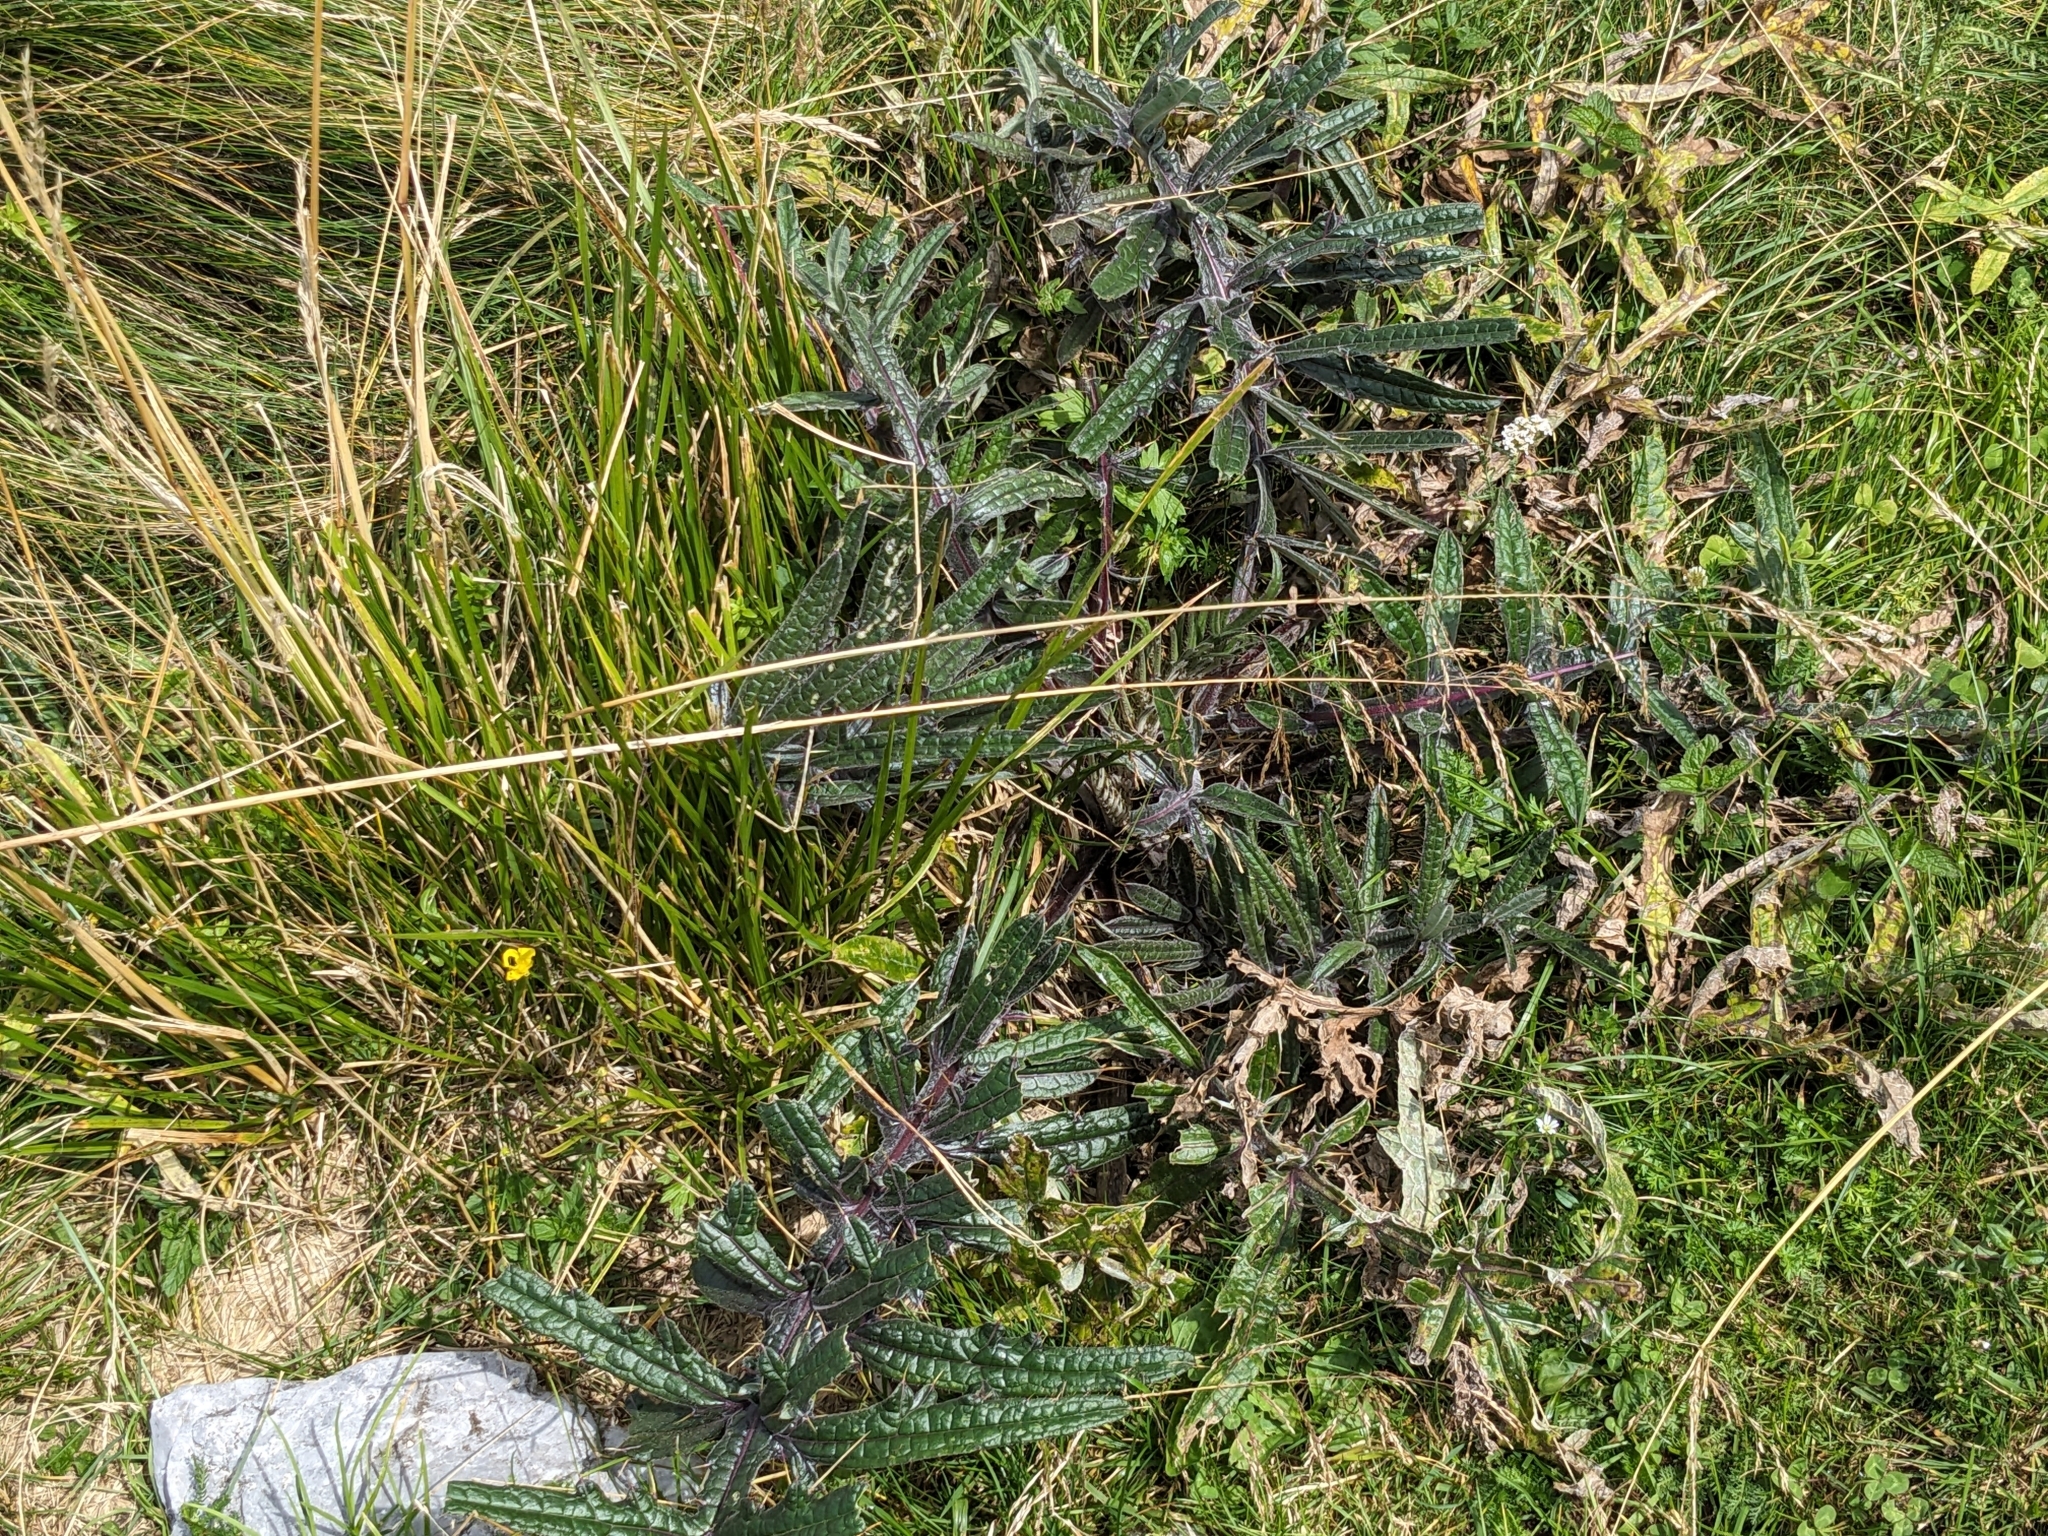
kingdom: Plantae
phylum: Tracheophyta
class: Magnoliopsida
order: Asterales
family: Asteraceae
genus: Lophiolepis
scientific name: Lophiolepis eriophora
